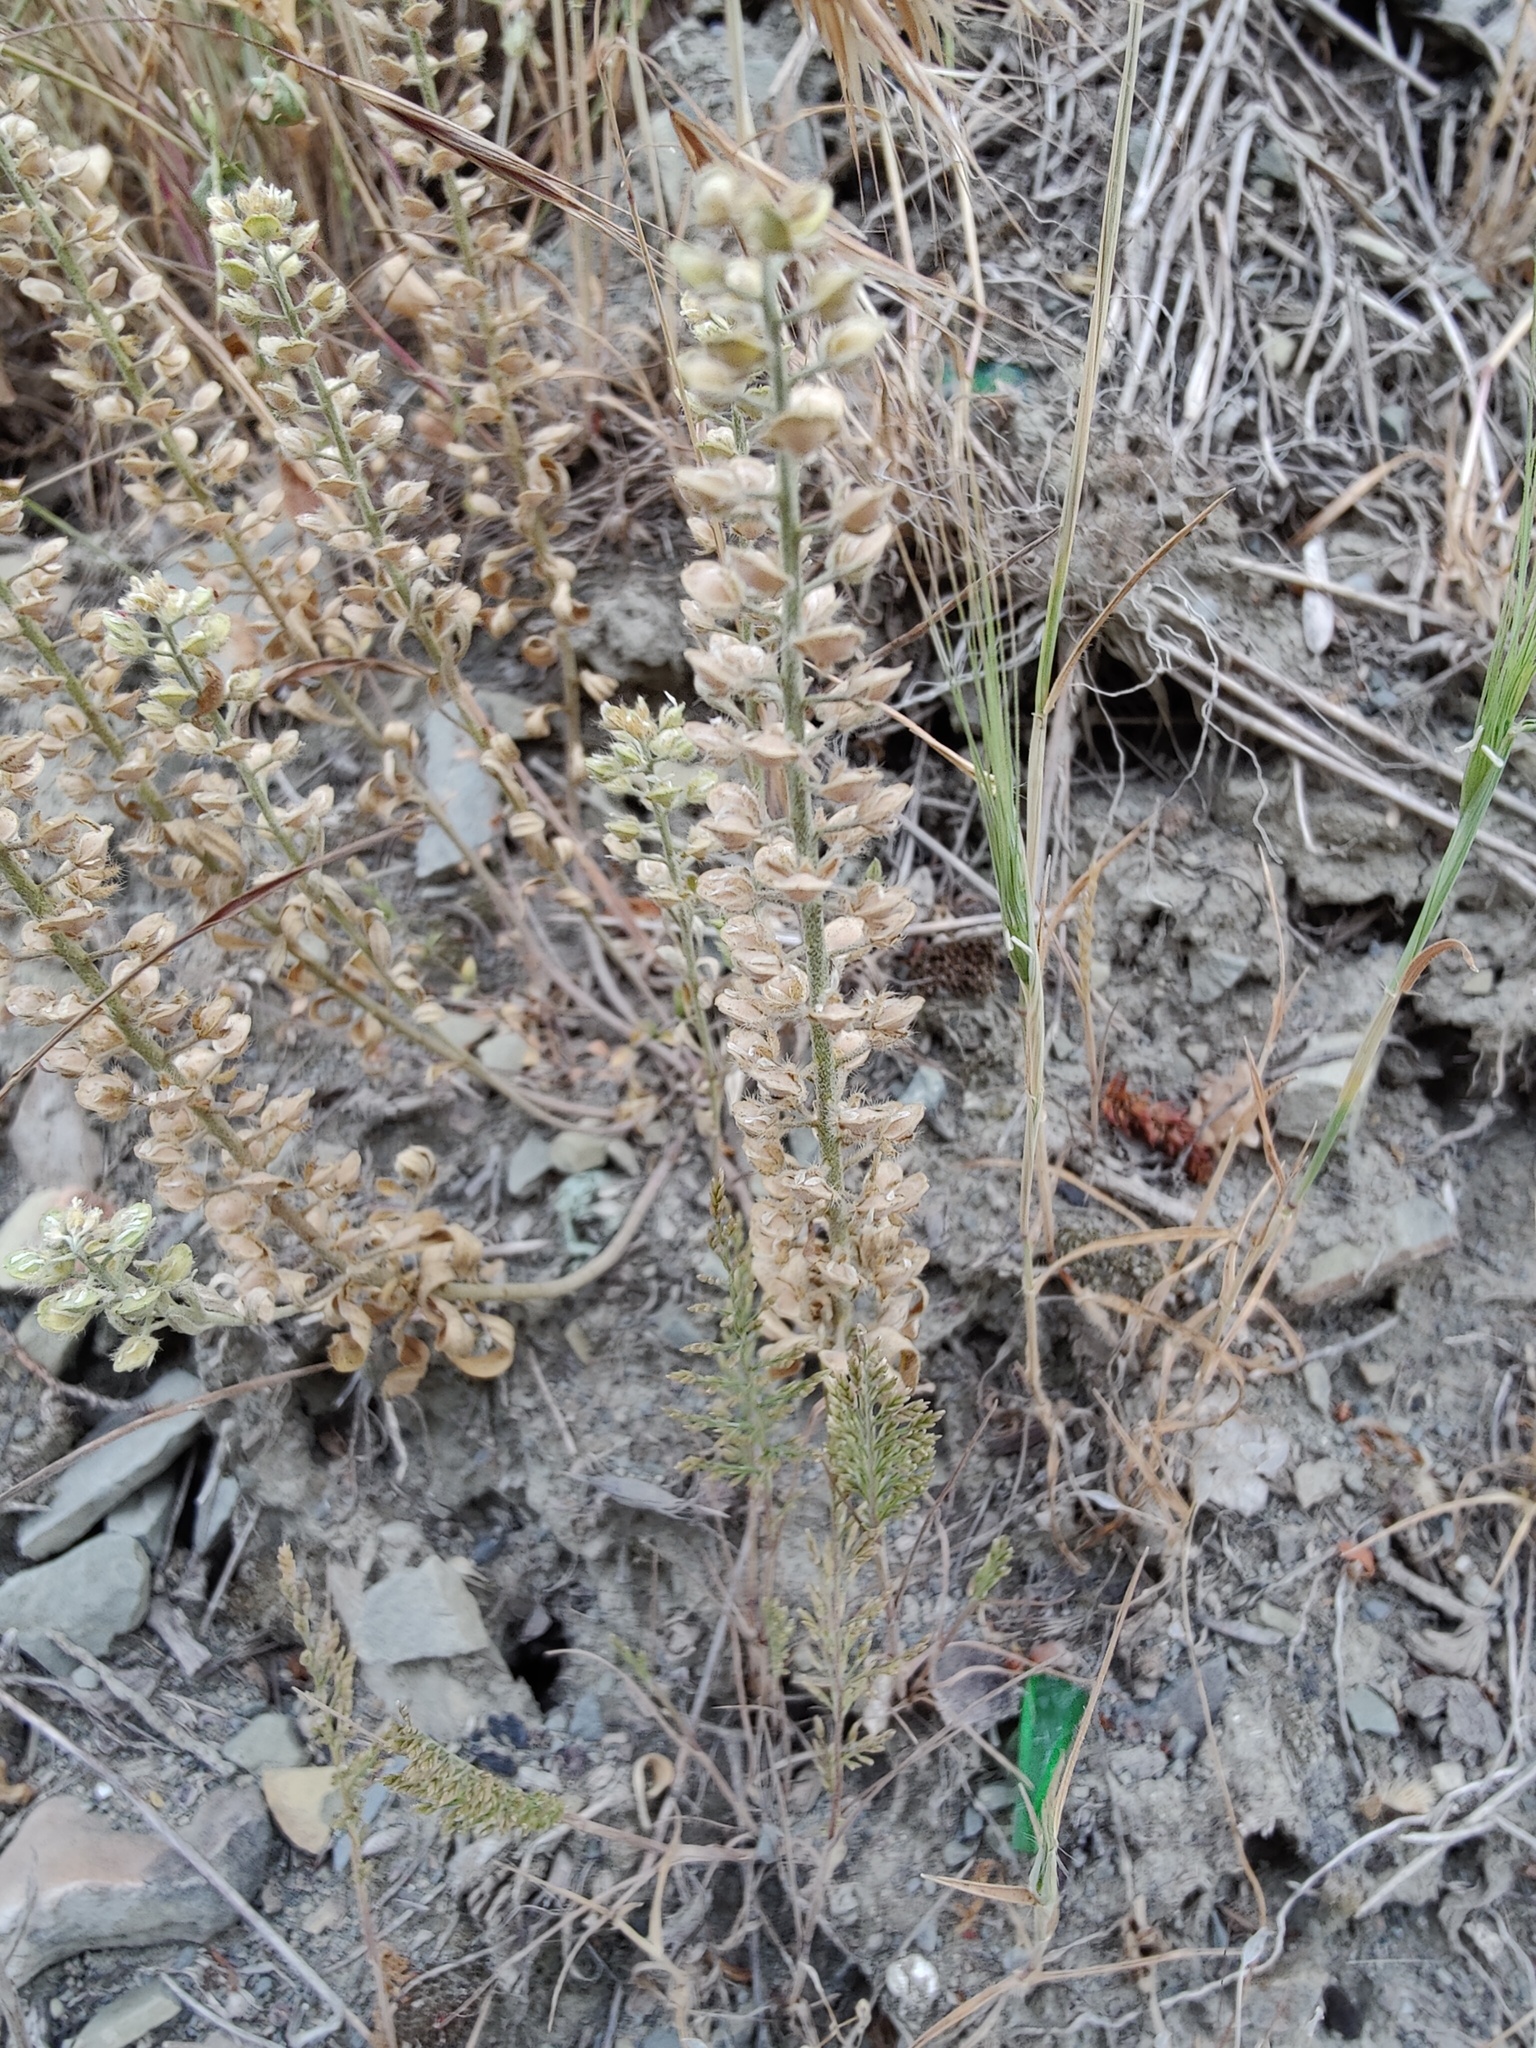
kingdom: Plantae
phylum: Tracheophyta
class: Magnoliopsida
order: Brassicales
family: Brassicaceae
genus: Alyssum
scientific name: Alyssum hirsutum
